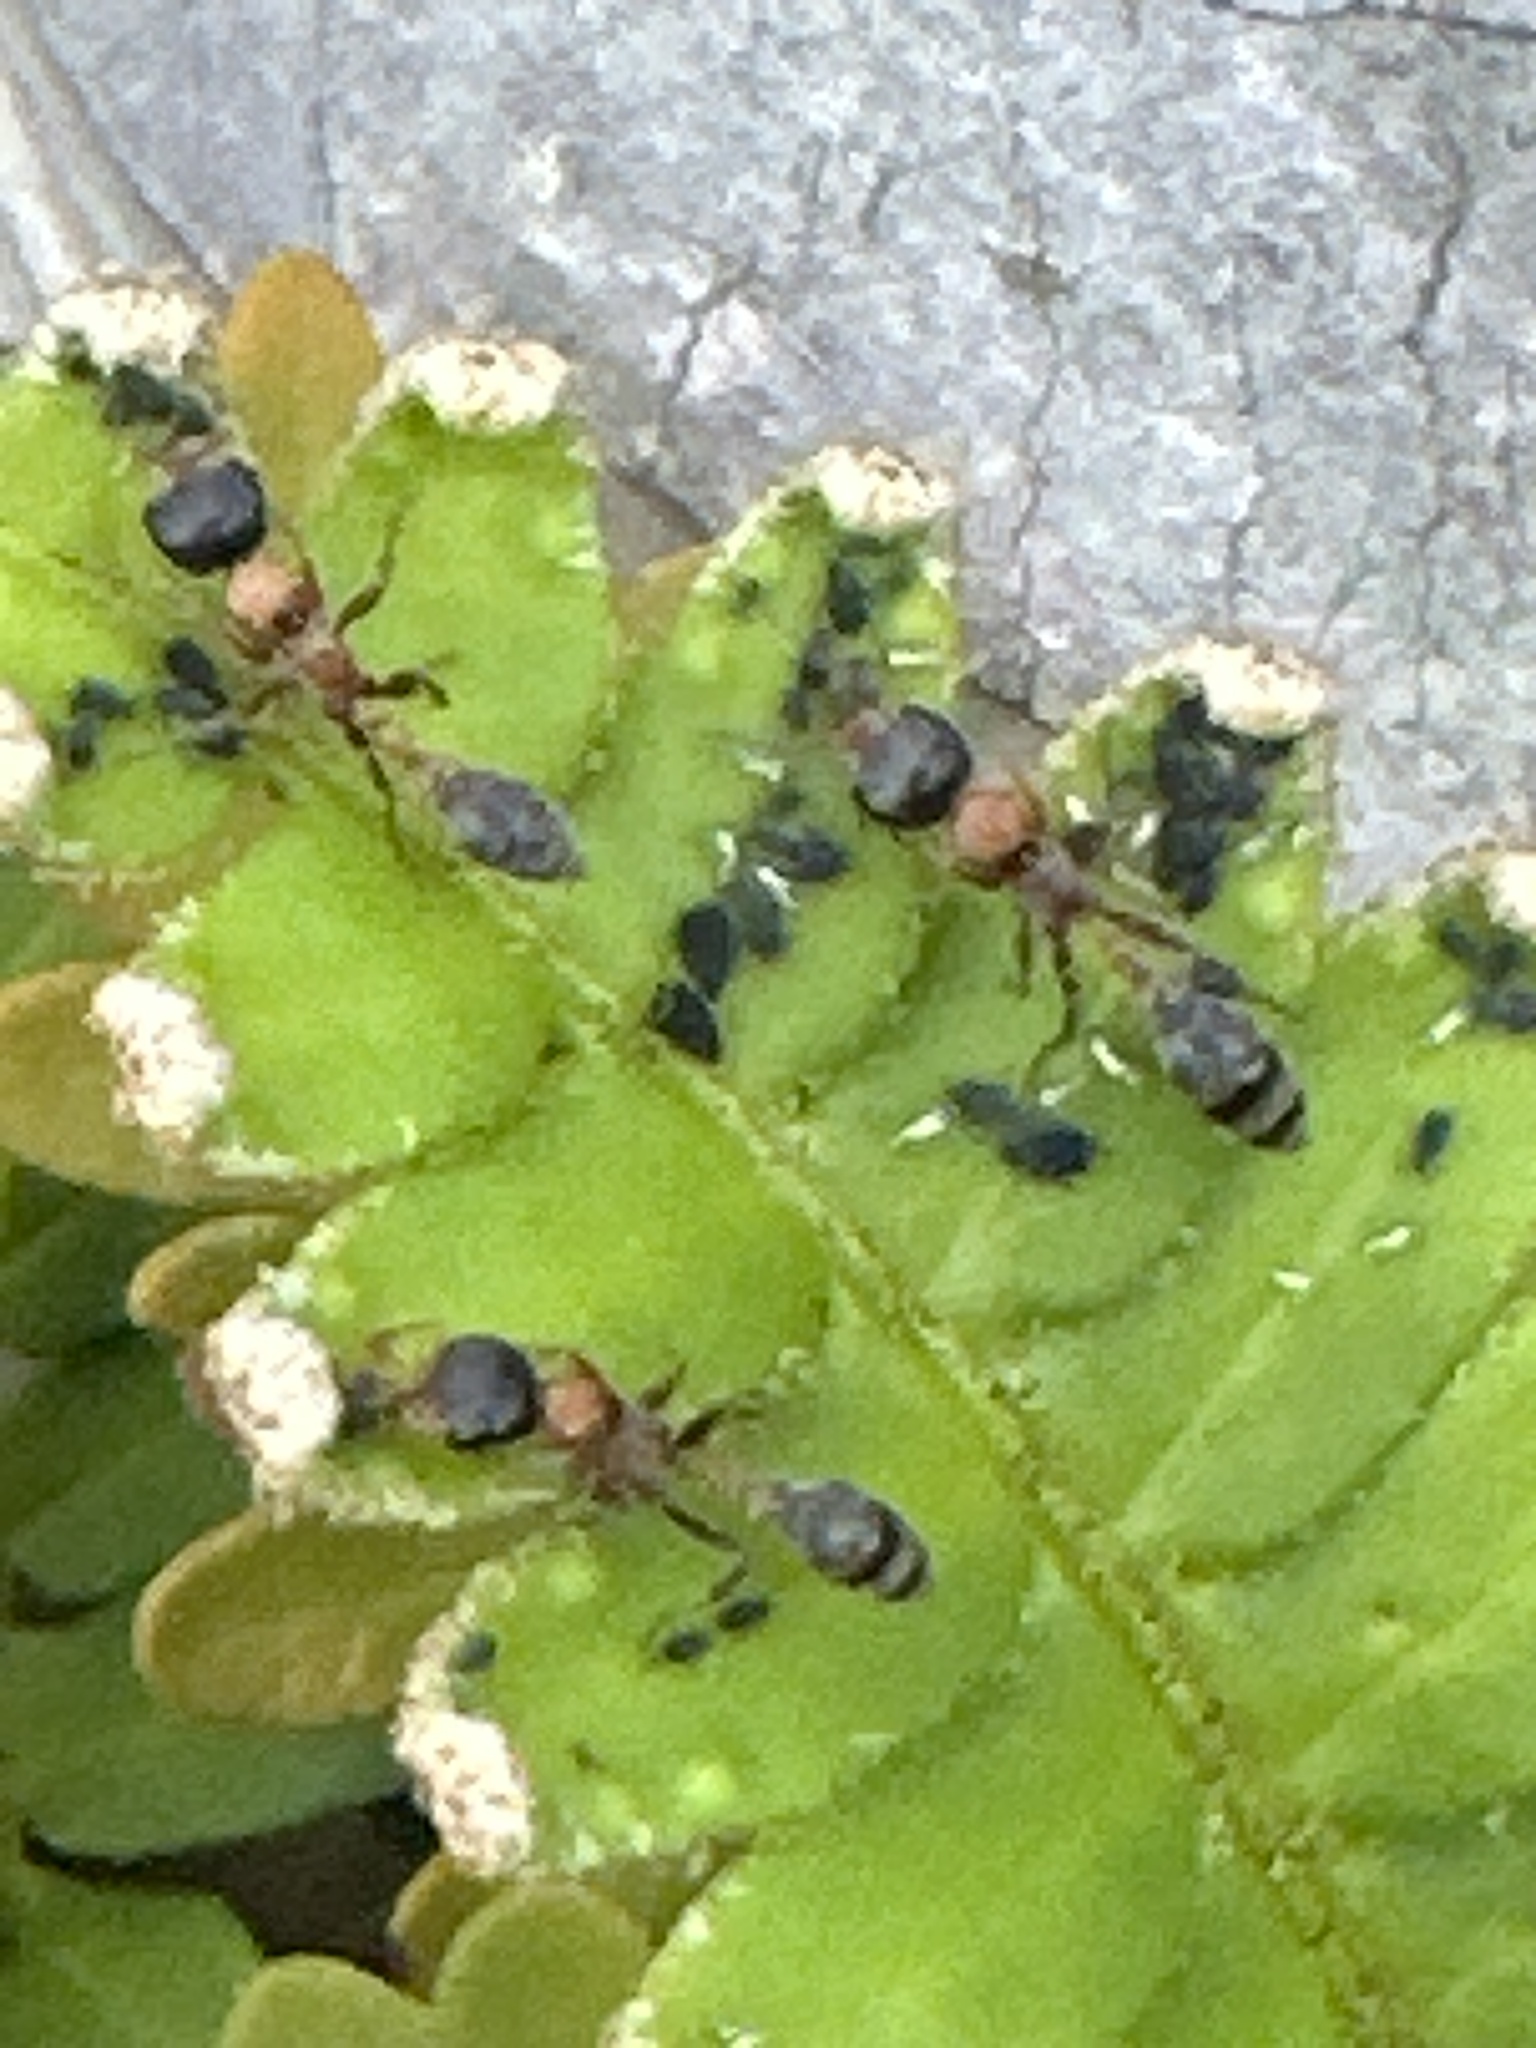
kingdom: Animalia
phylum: Arthropoda
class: Insecta
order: Hymenoptera
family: Formicidae
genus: Pseudomyrmex
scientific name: Pseudomyrmex gracilis
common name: Graceful twig ant
